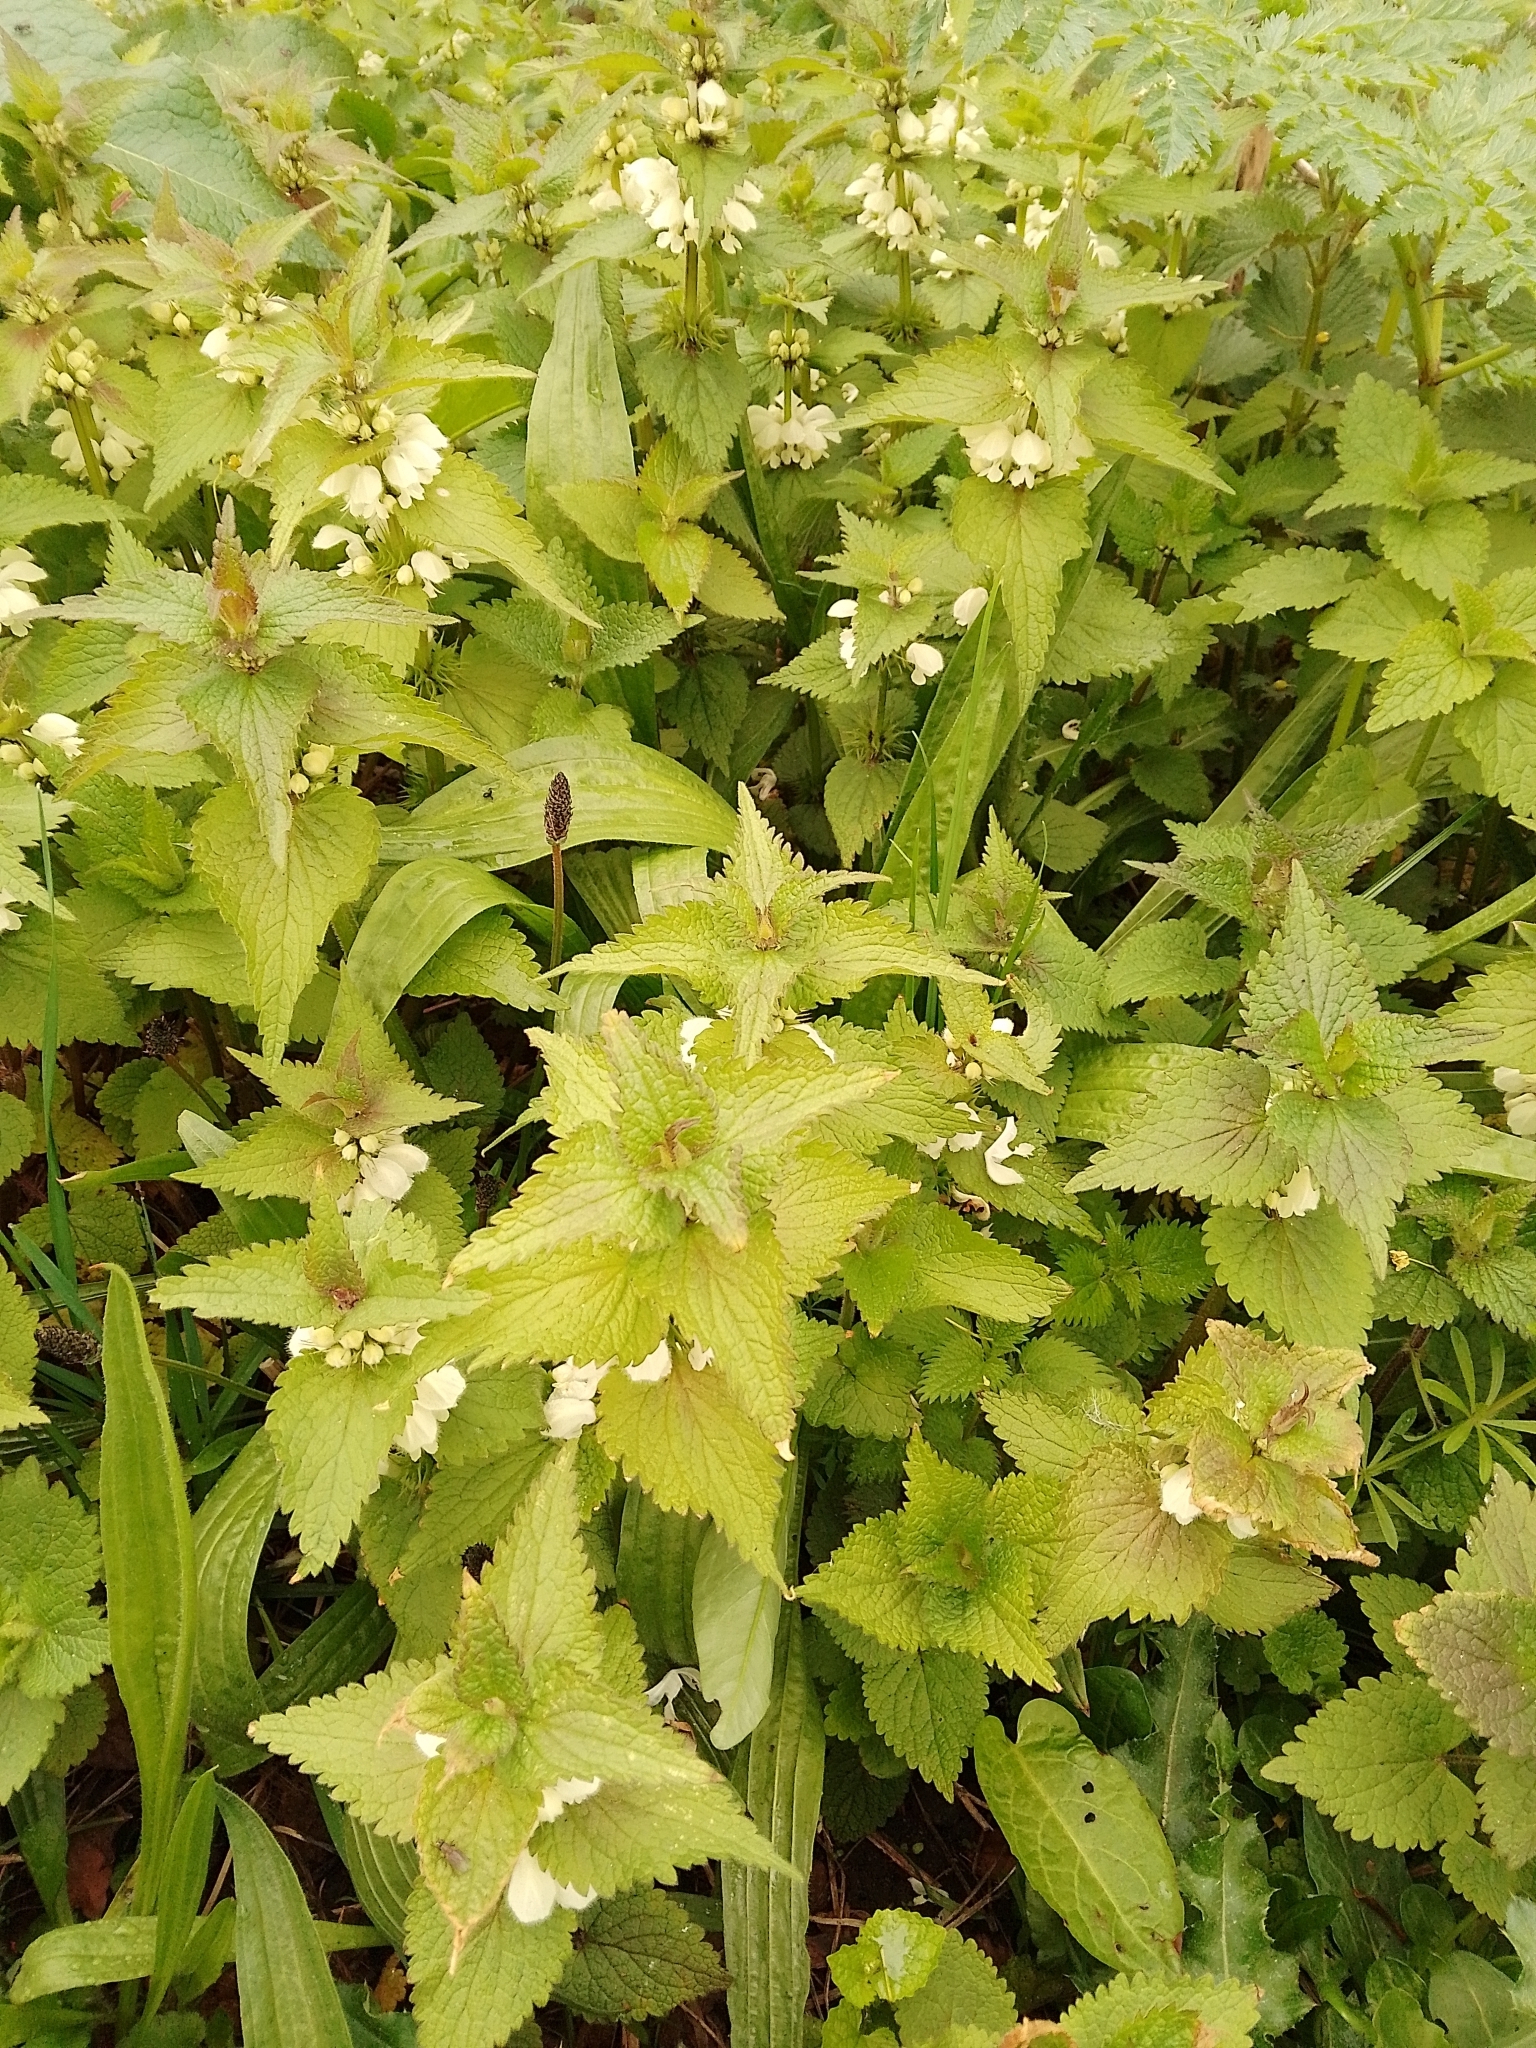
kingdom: Plantae
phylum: Tracheophyta
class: Magnoliopsida
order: Lamiales
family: Lamiaceae
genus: Lamium
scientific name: Lamium album
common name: White dead-nettle
